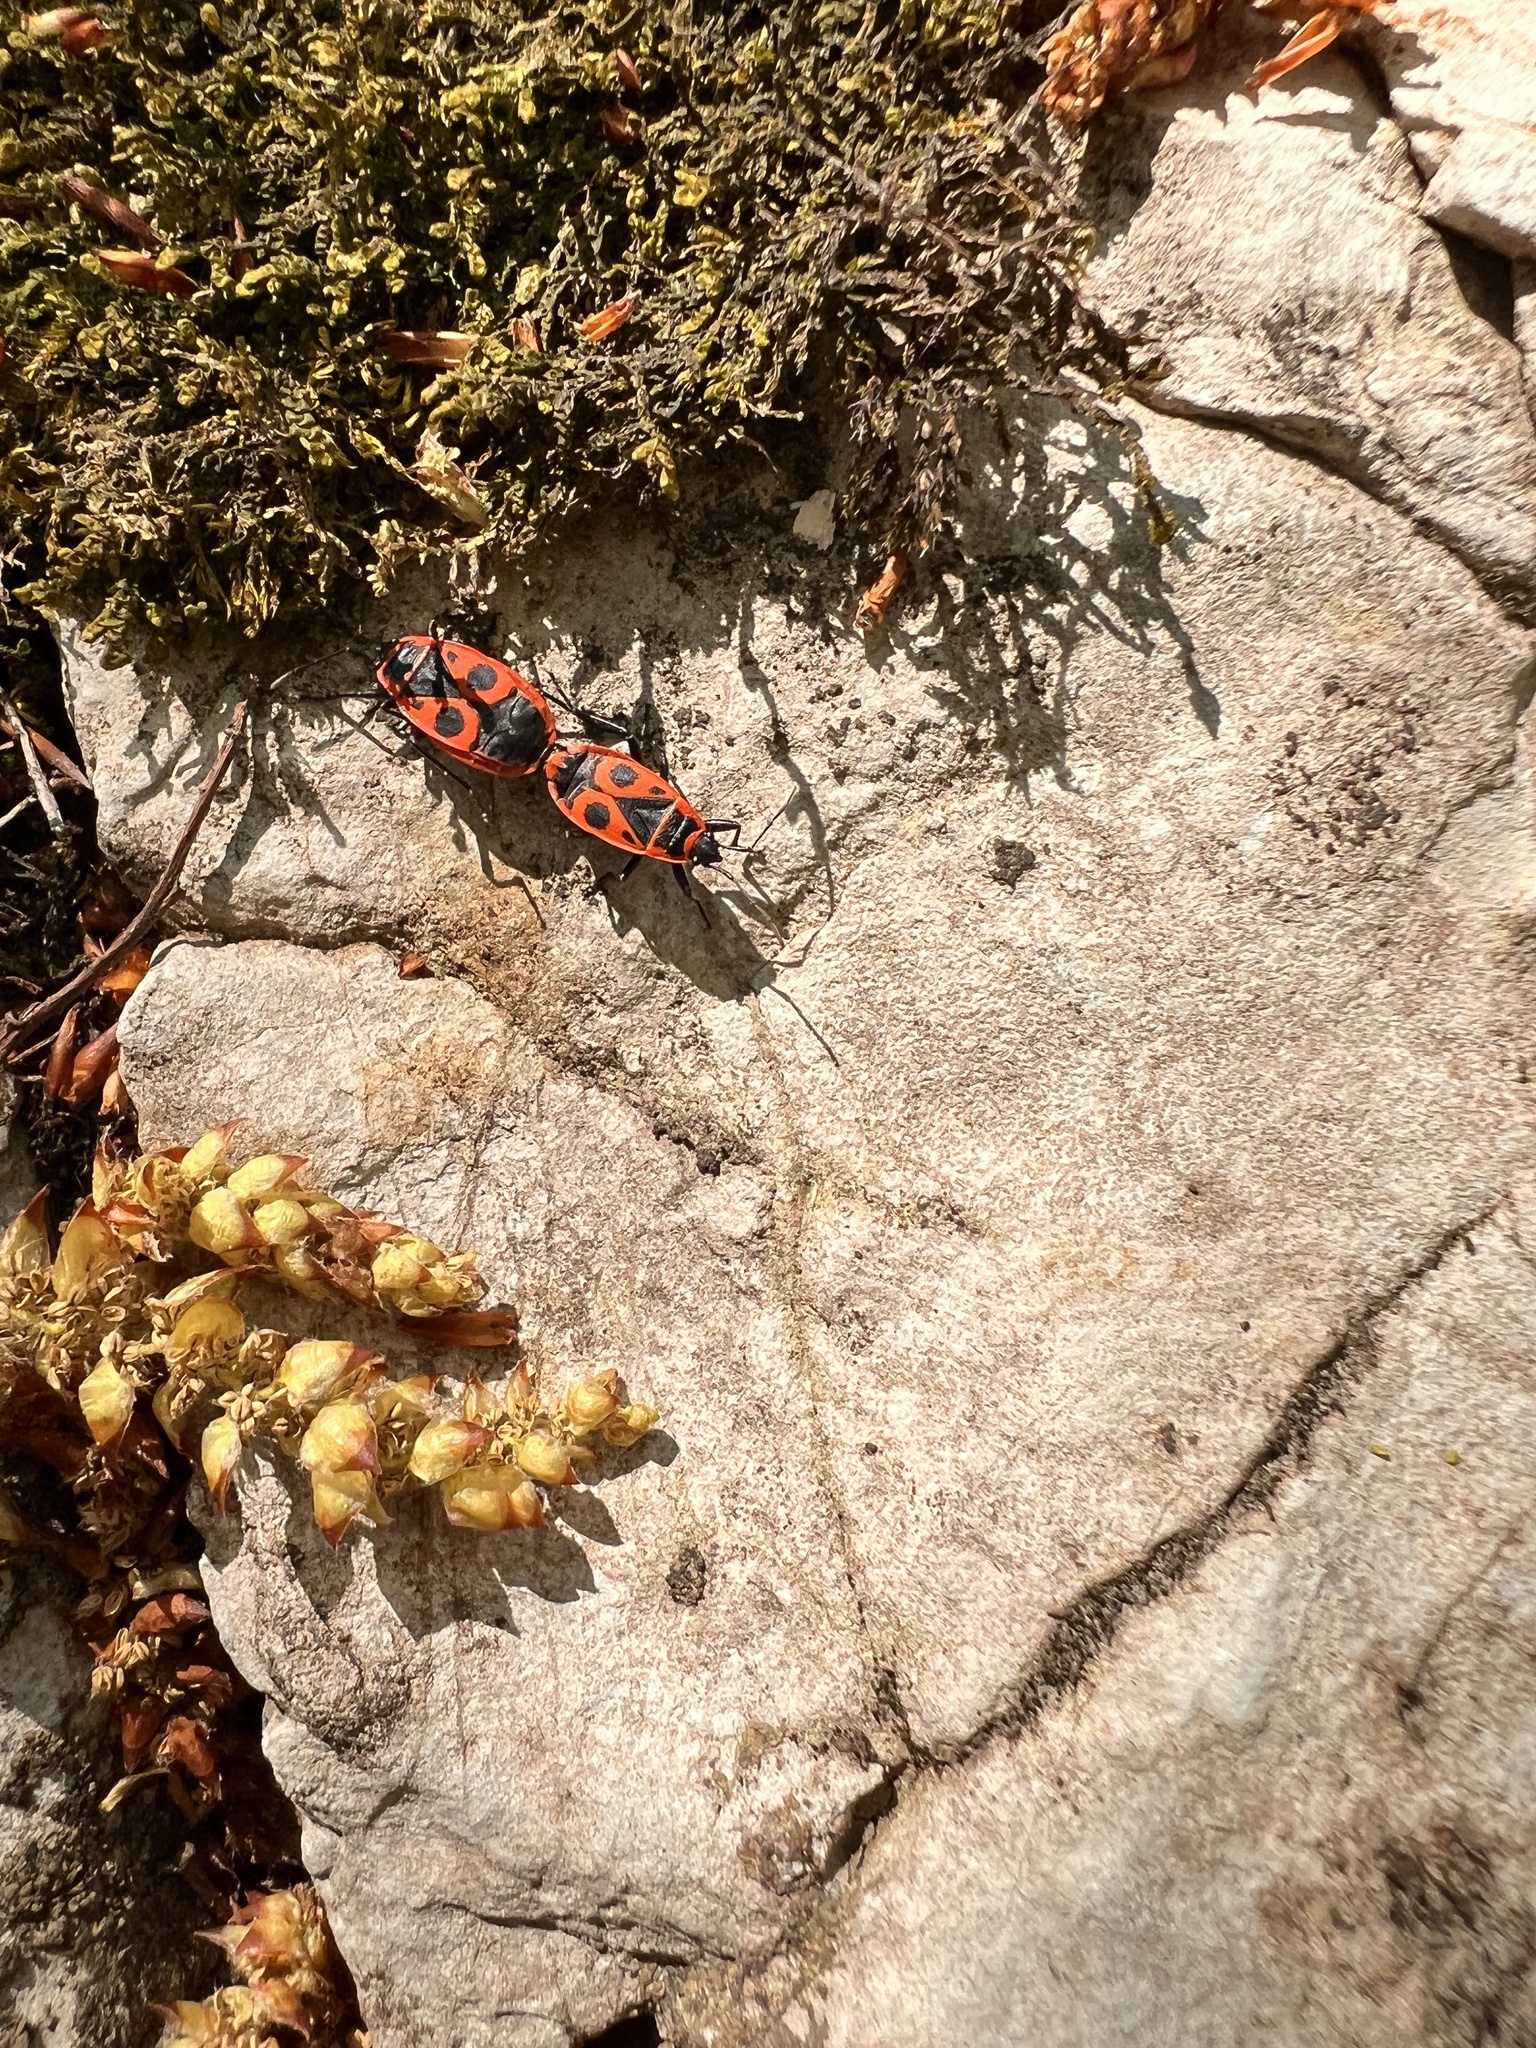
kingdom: Animalia
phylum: Arthropoda
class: Insecta
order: Hemiptera
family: Pyrrhocoridae
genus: Pyrrhocoris
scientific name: Pyrrhocoris apterus
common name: Firebug
